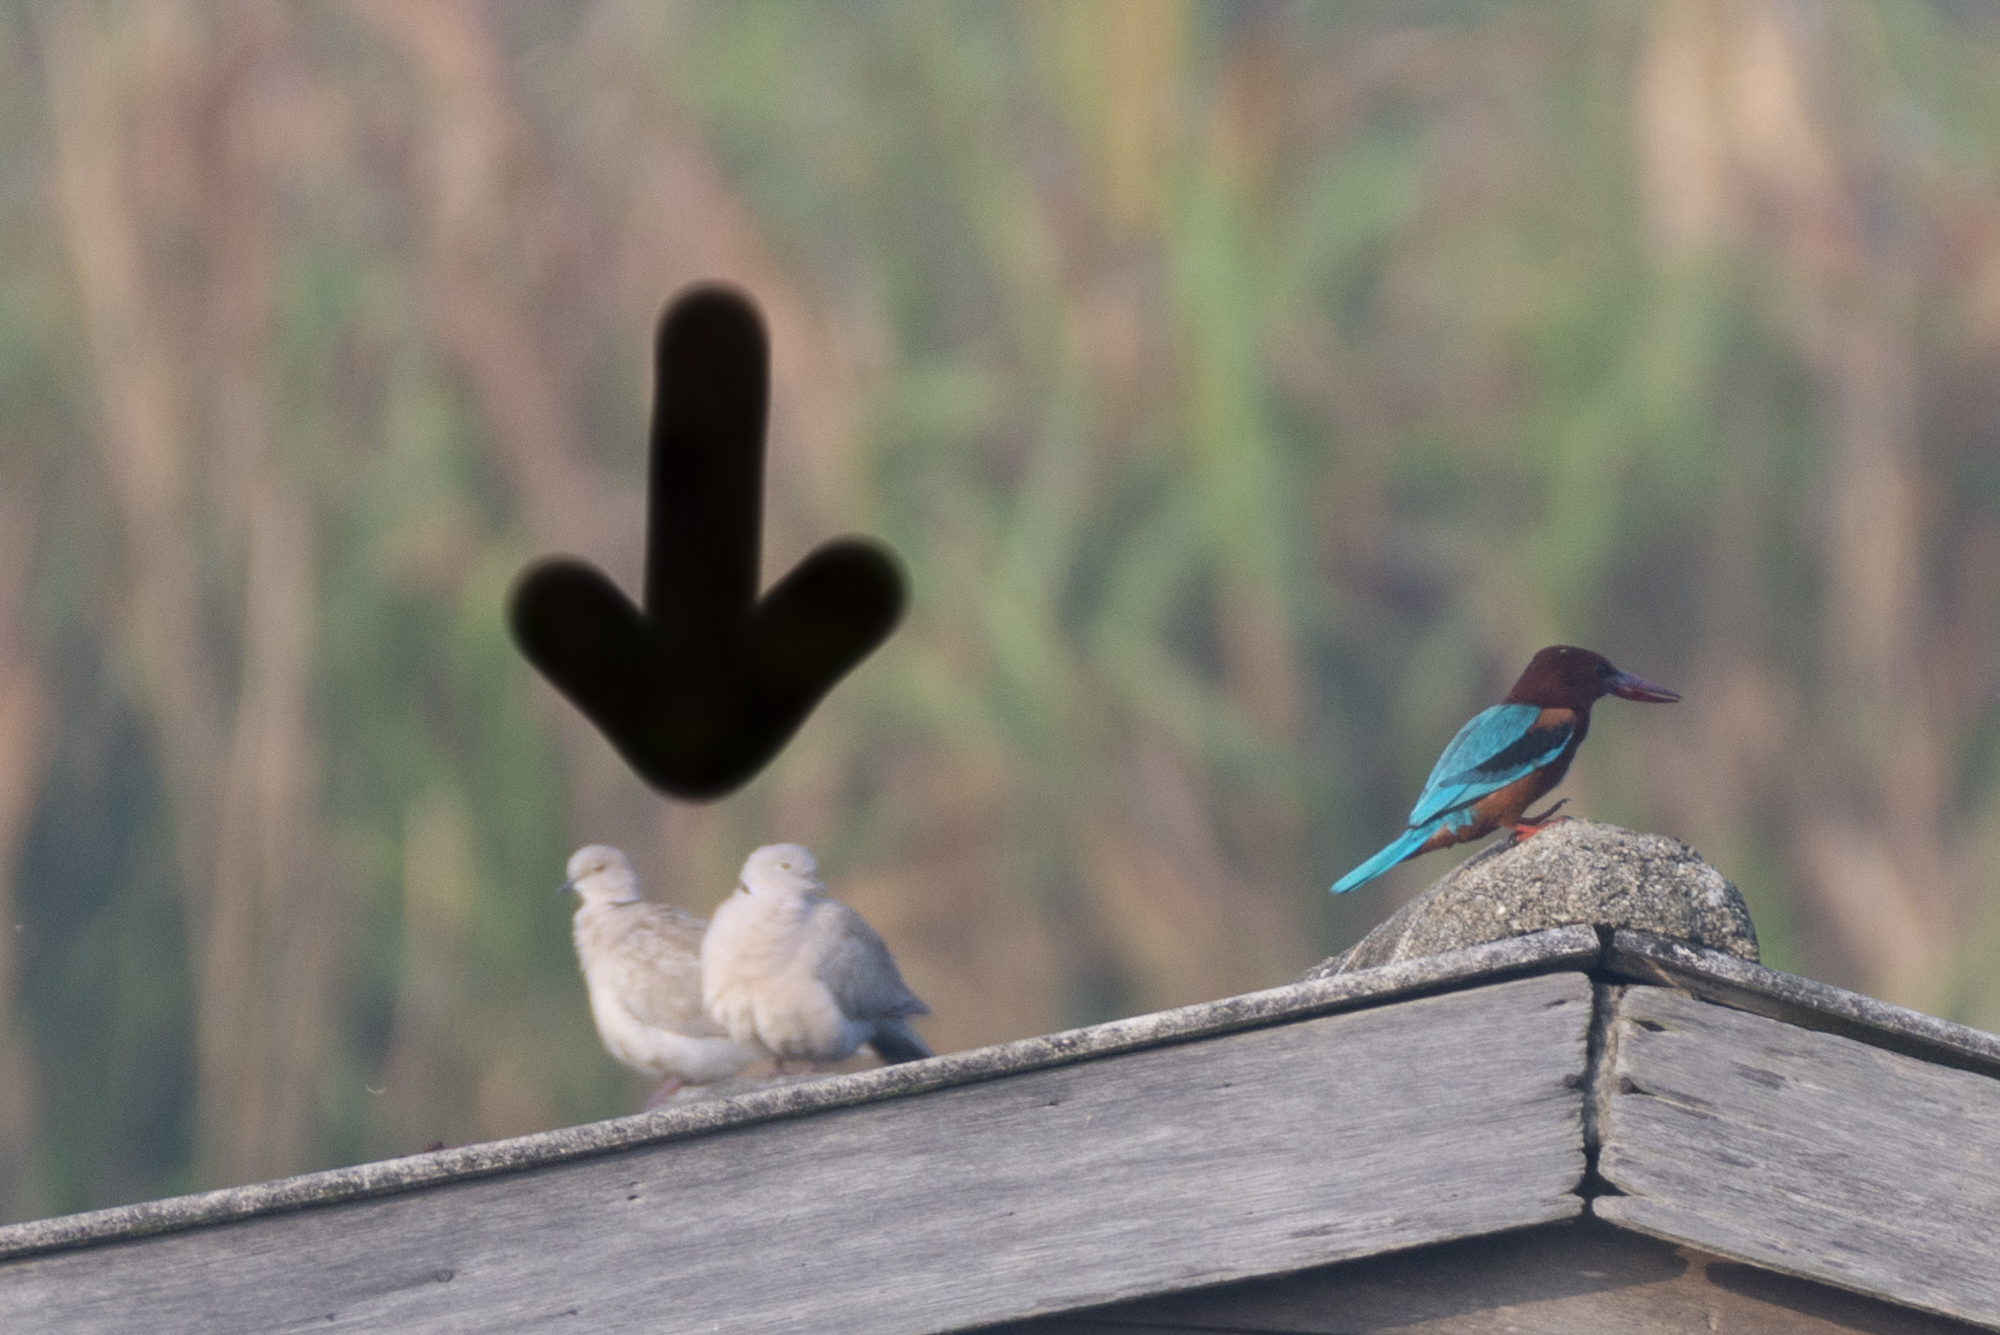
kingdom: Animalia
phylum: Chordata
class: Aves
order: Columbiformes
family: Columbidae
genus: Streptopelia
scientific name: Streptopelia decaocto
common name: Eurasian collared dove
